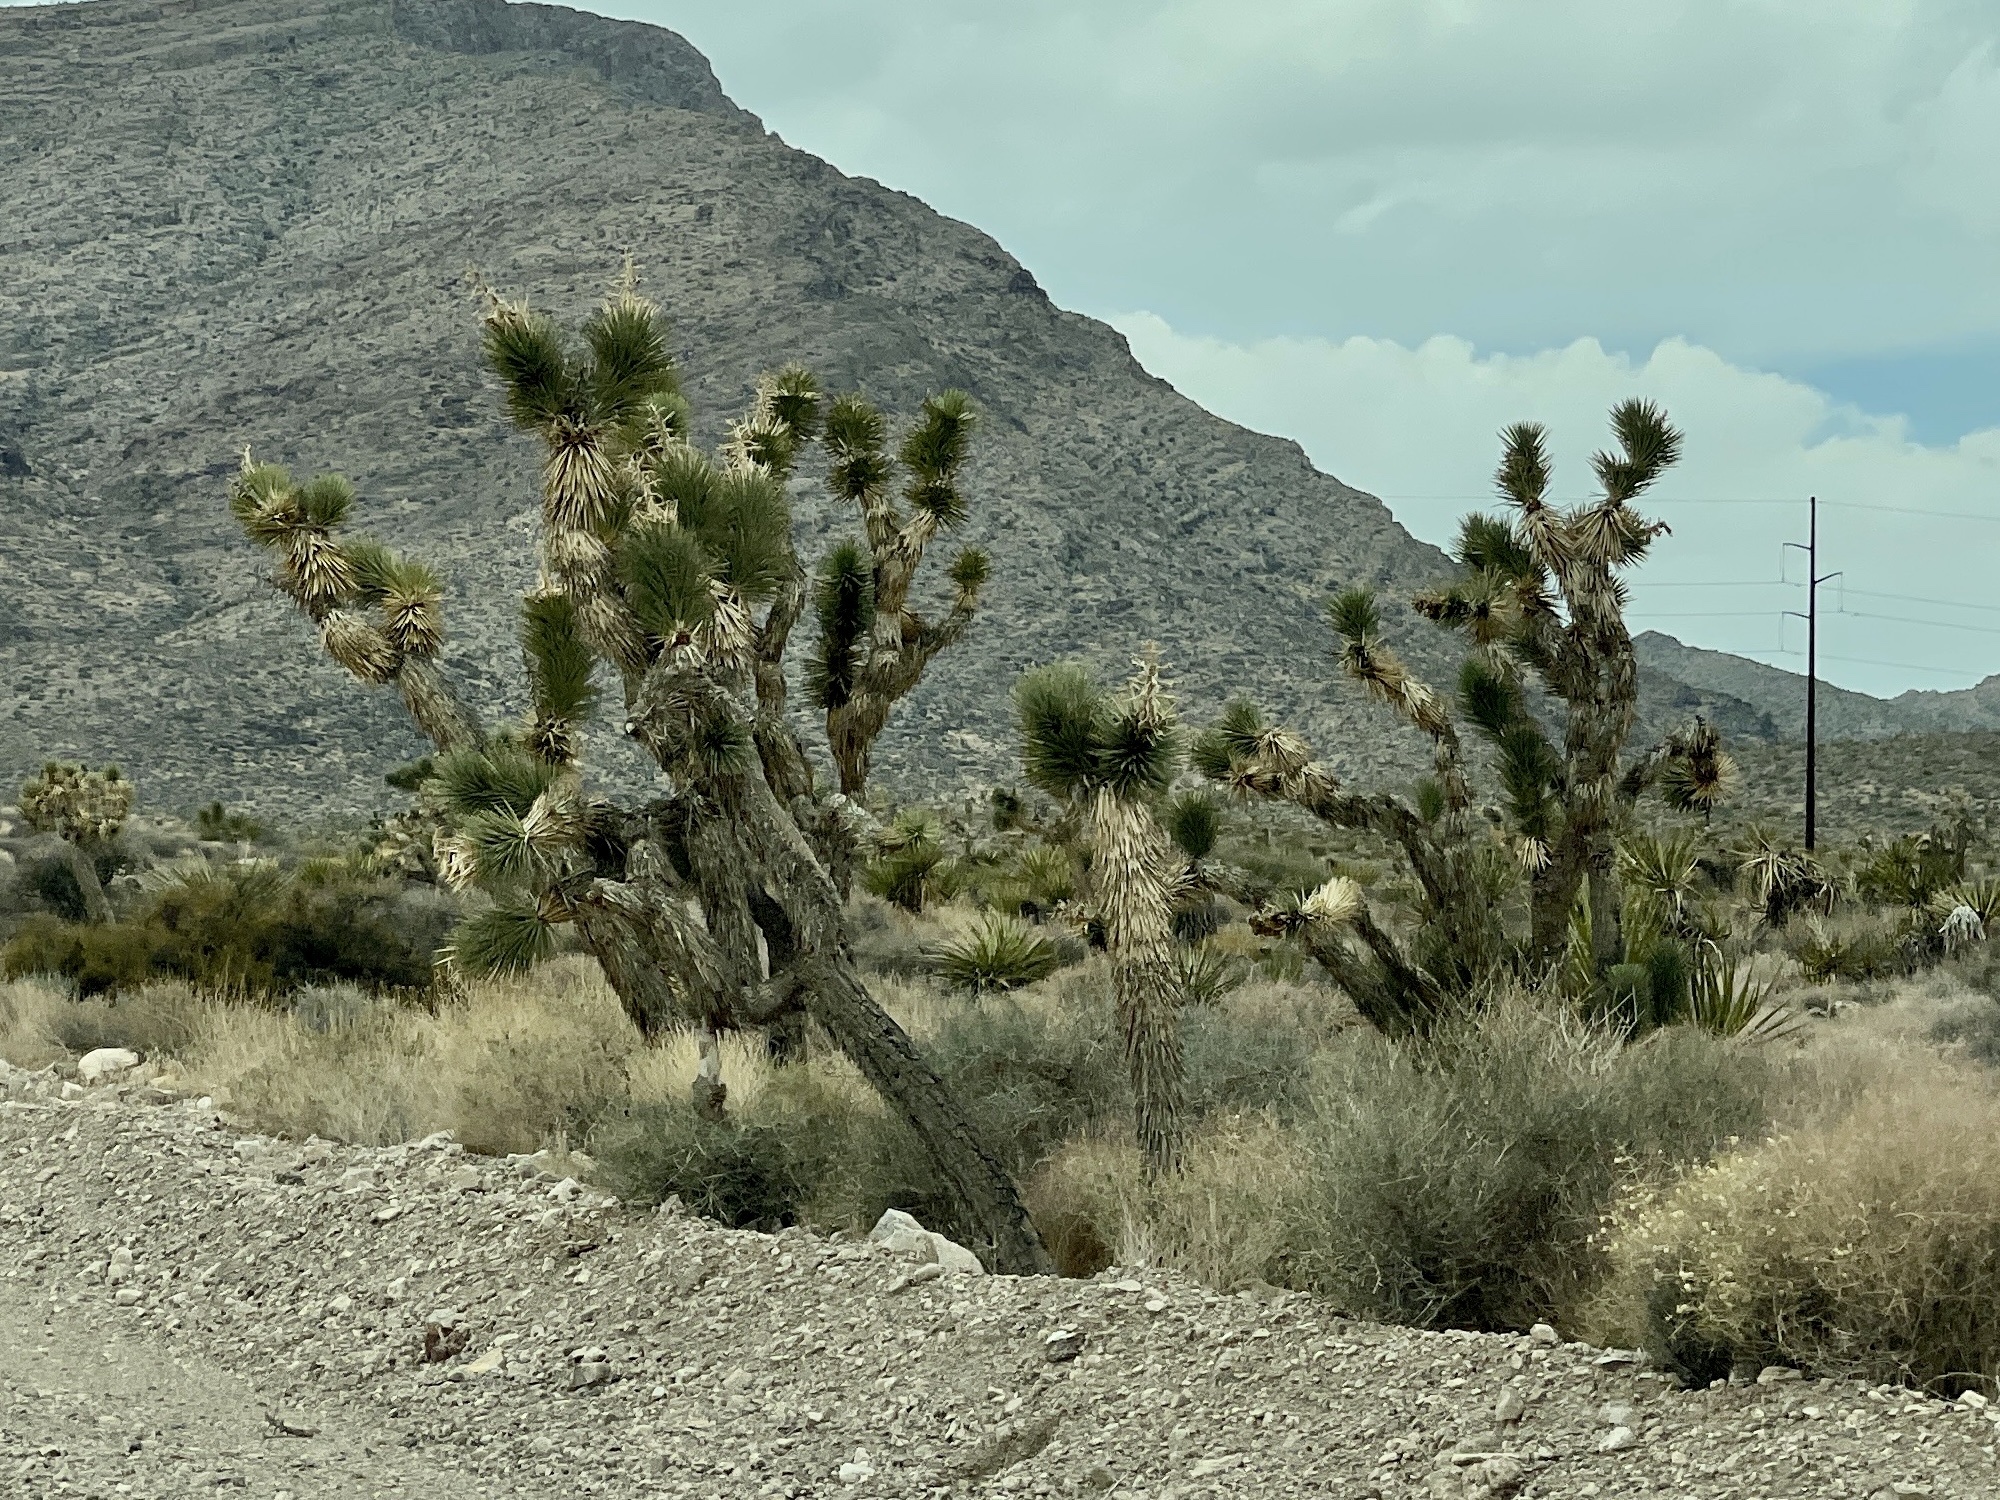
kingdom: Plantae
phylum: Tracheophyta
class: Liliopsida
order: Asparagales
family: Asparagaceae
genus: Yucca
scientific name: Yucca brevifolia
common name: Joshua tree
